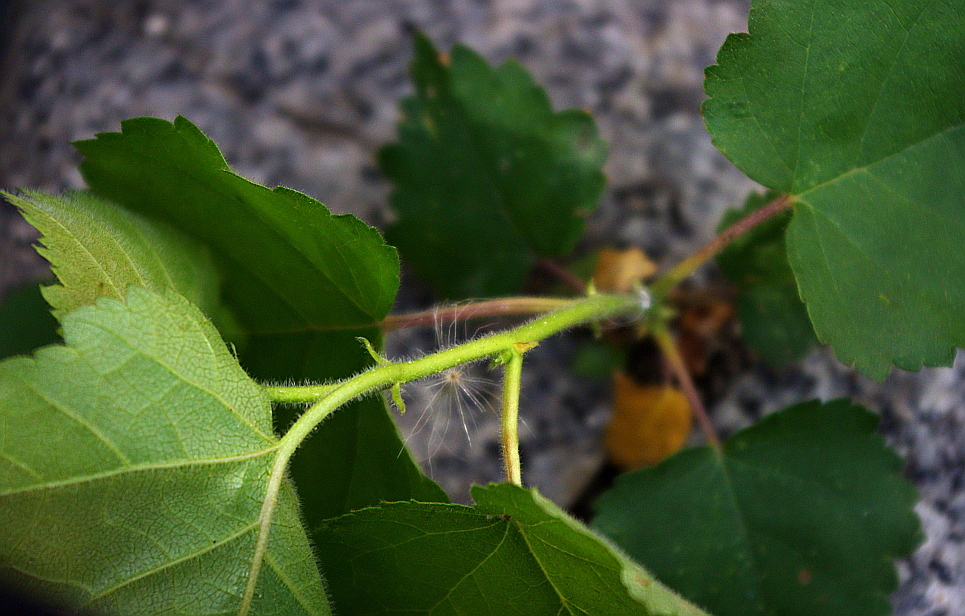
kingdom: Plantae
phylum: Tracheophyta
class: Magnoliopsida
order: Fagales
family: Betulaceae
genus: Betula
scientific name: Betula pubescens
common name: Downy birch
